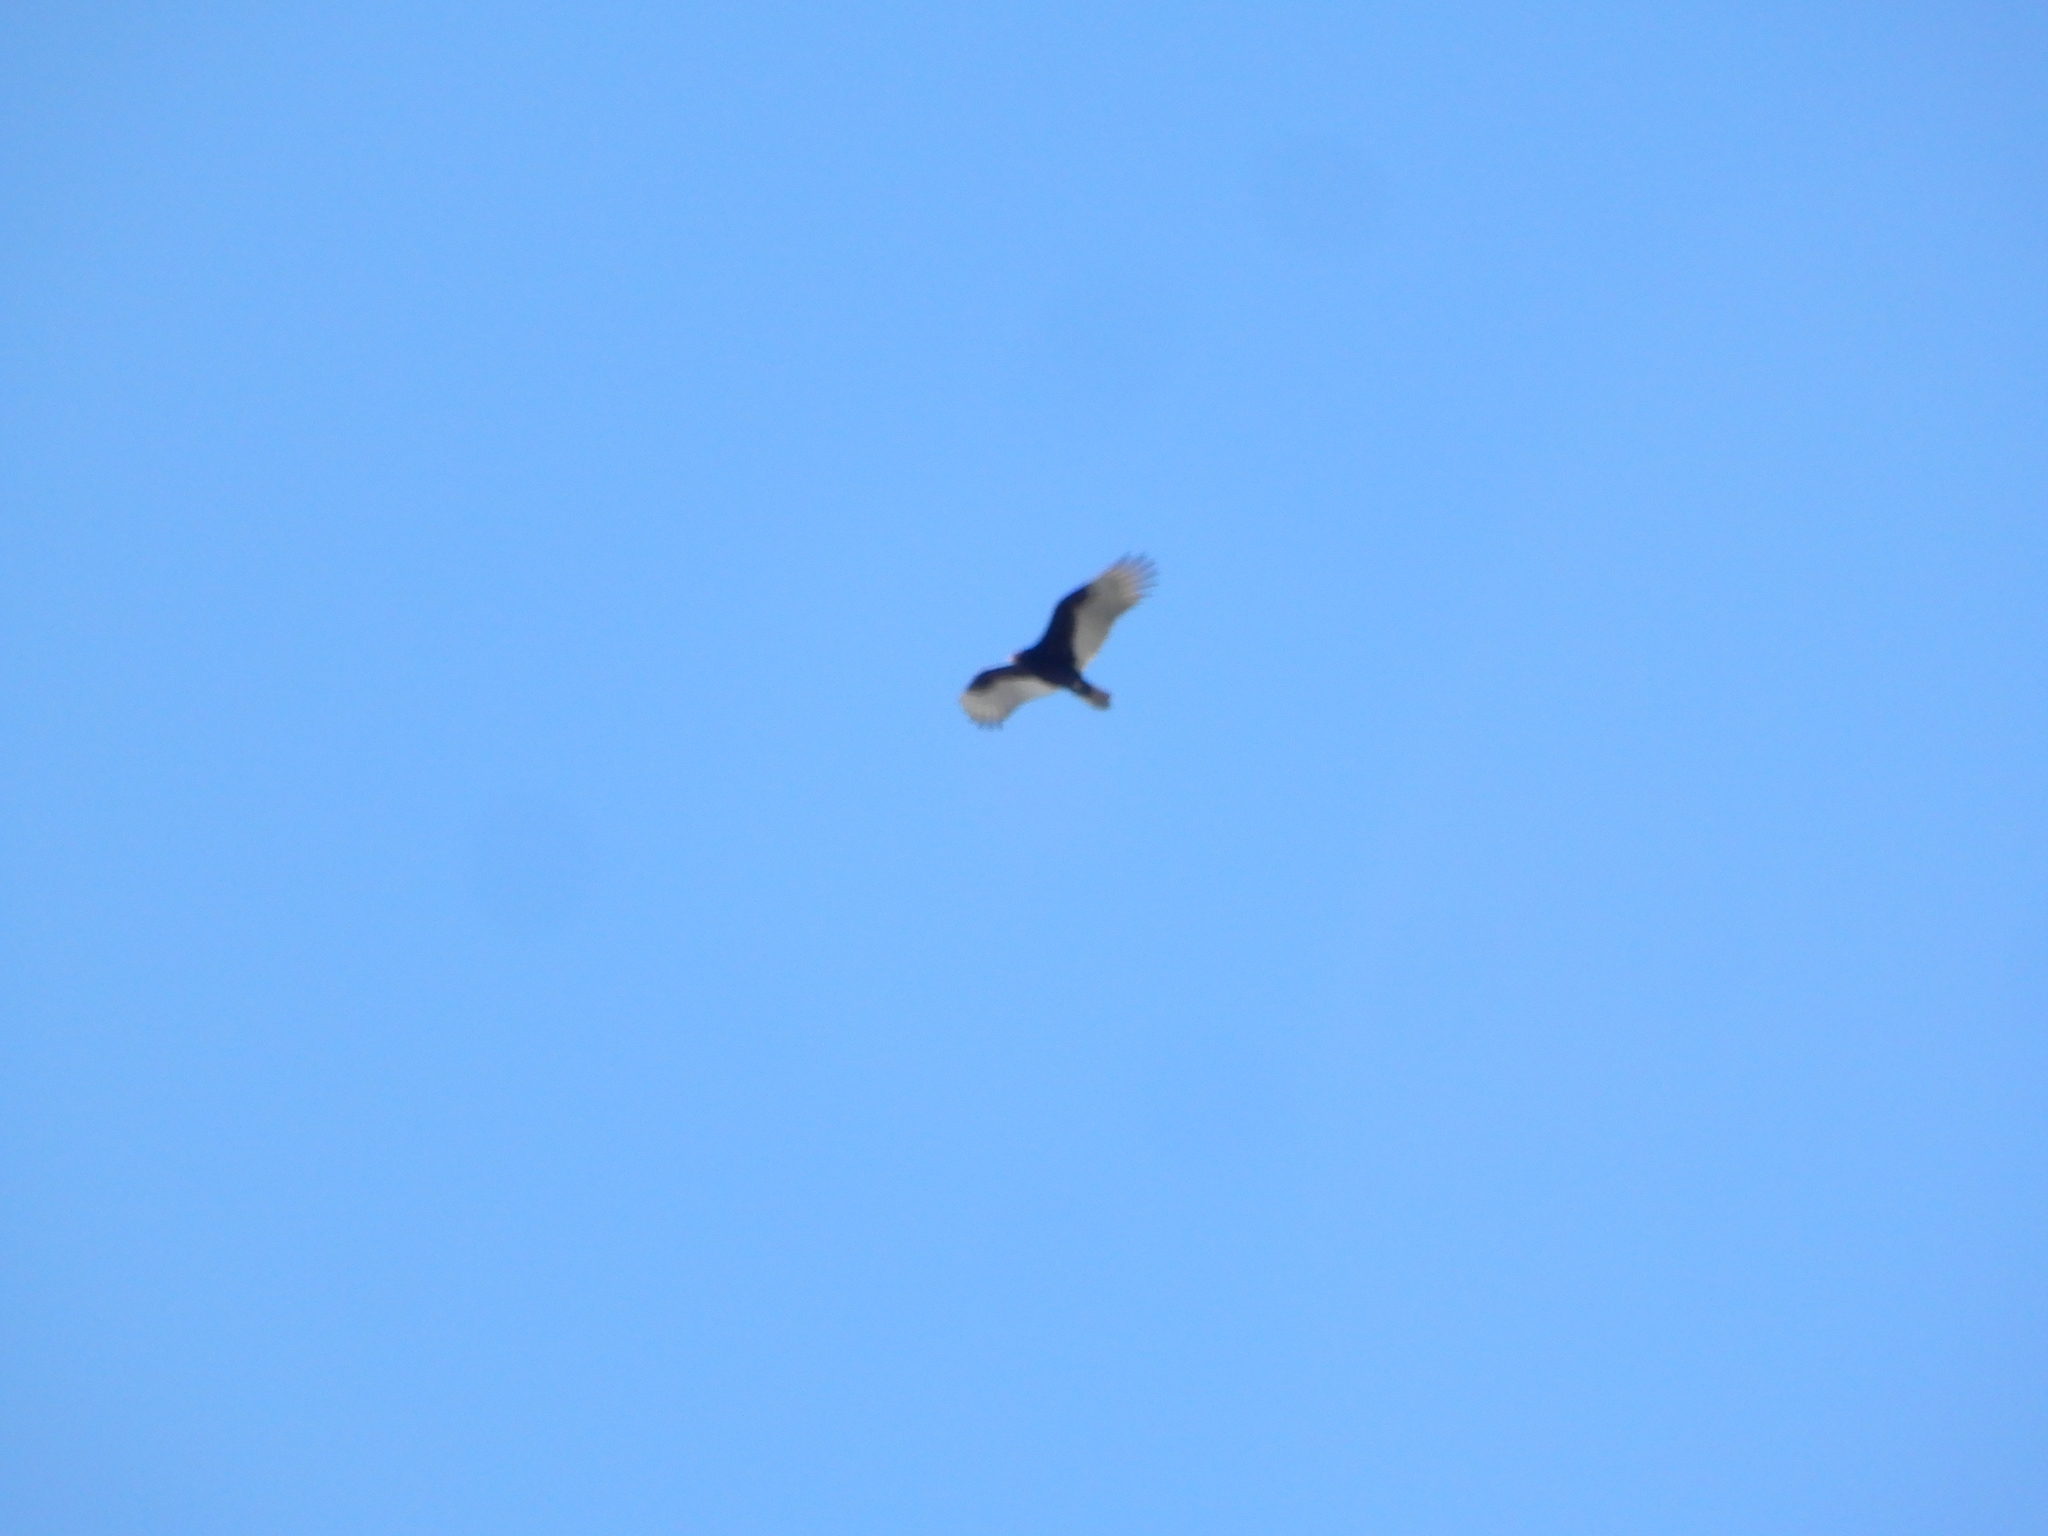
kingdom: Animalia
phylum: Chordata
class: Aves
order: Accipitriformes
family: Cathartidae
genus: Cathartes
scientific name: Cathartes aura
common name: Turkey vulture
